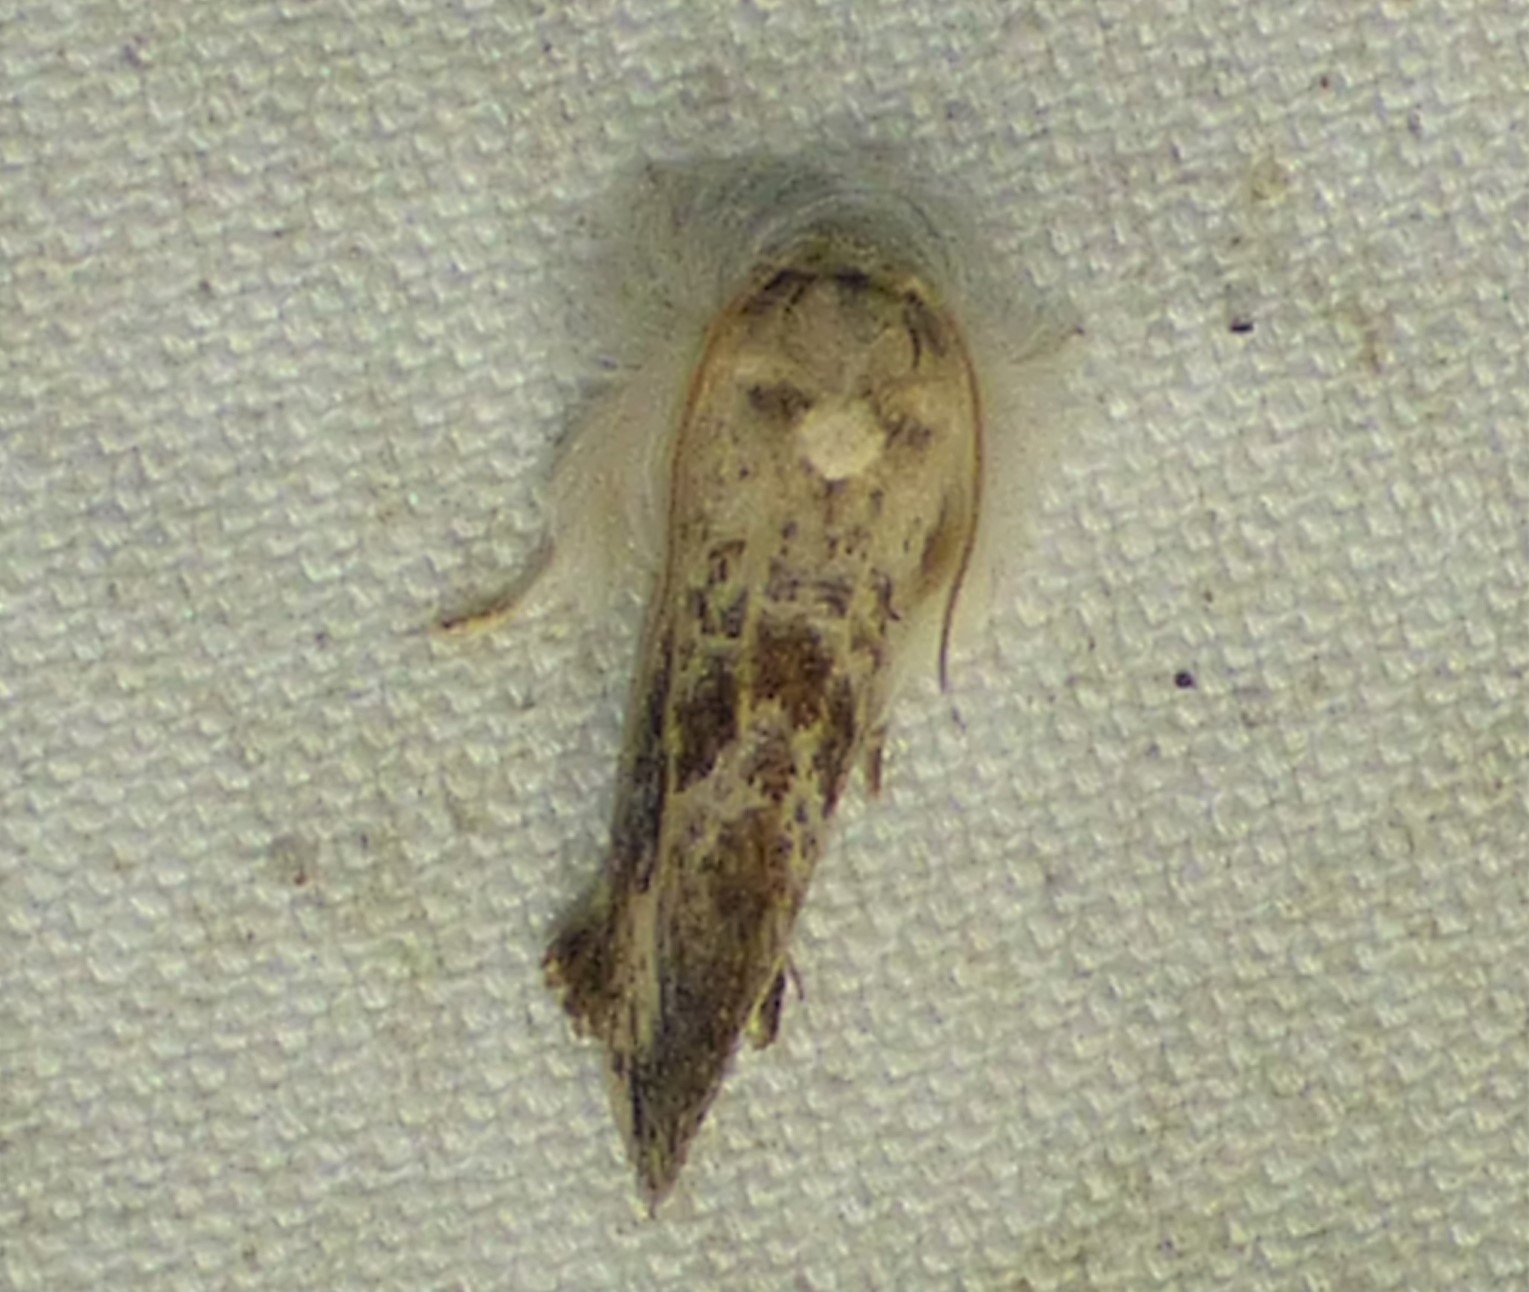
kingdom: Animalia
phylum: Arthropoda
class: Insecta
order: Lepidoptera
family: Tineidae
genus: Acrolophus
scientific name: Acrolophus mycetophagus
